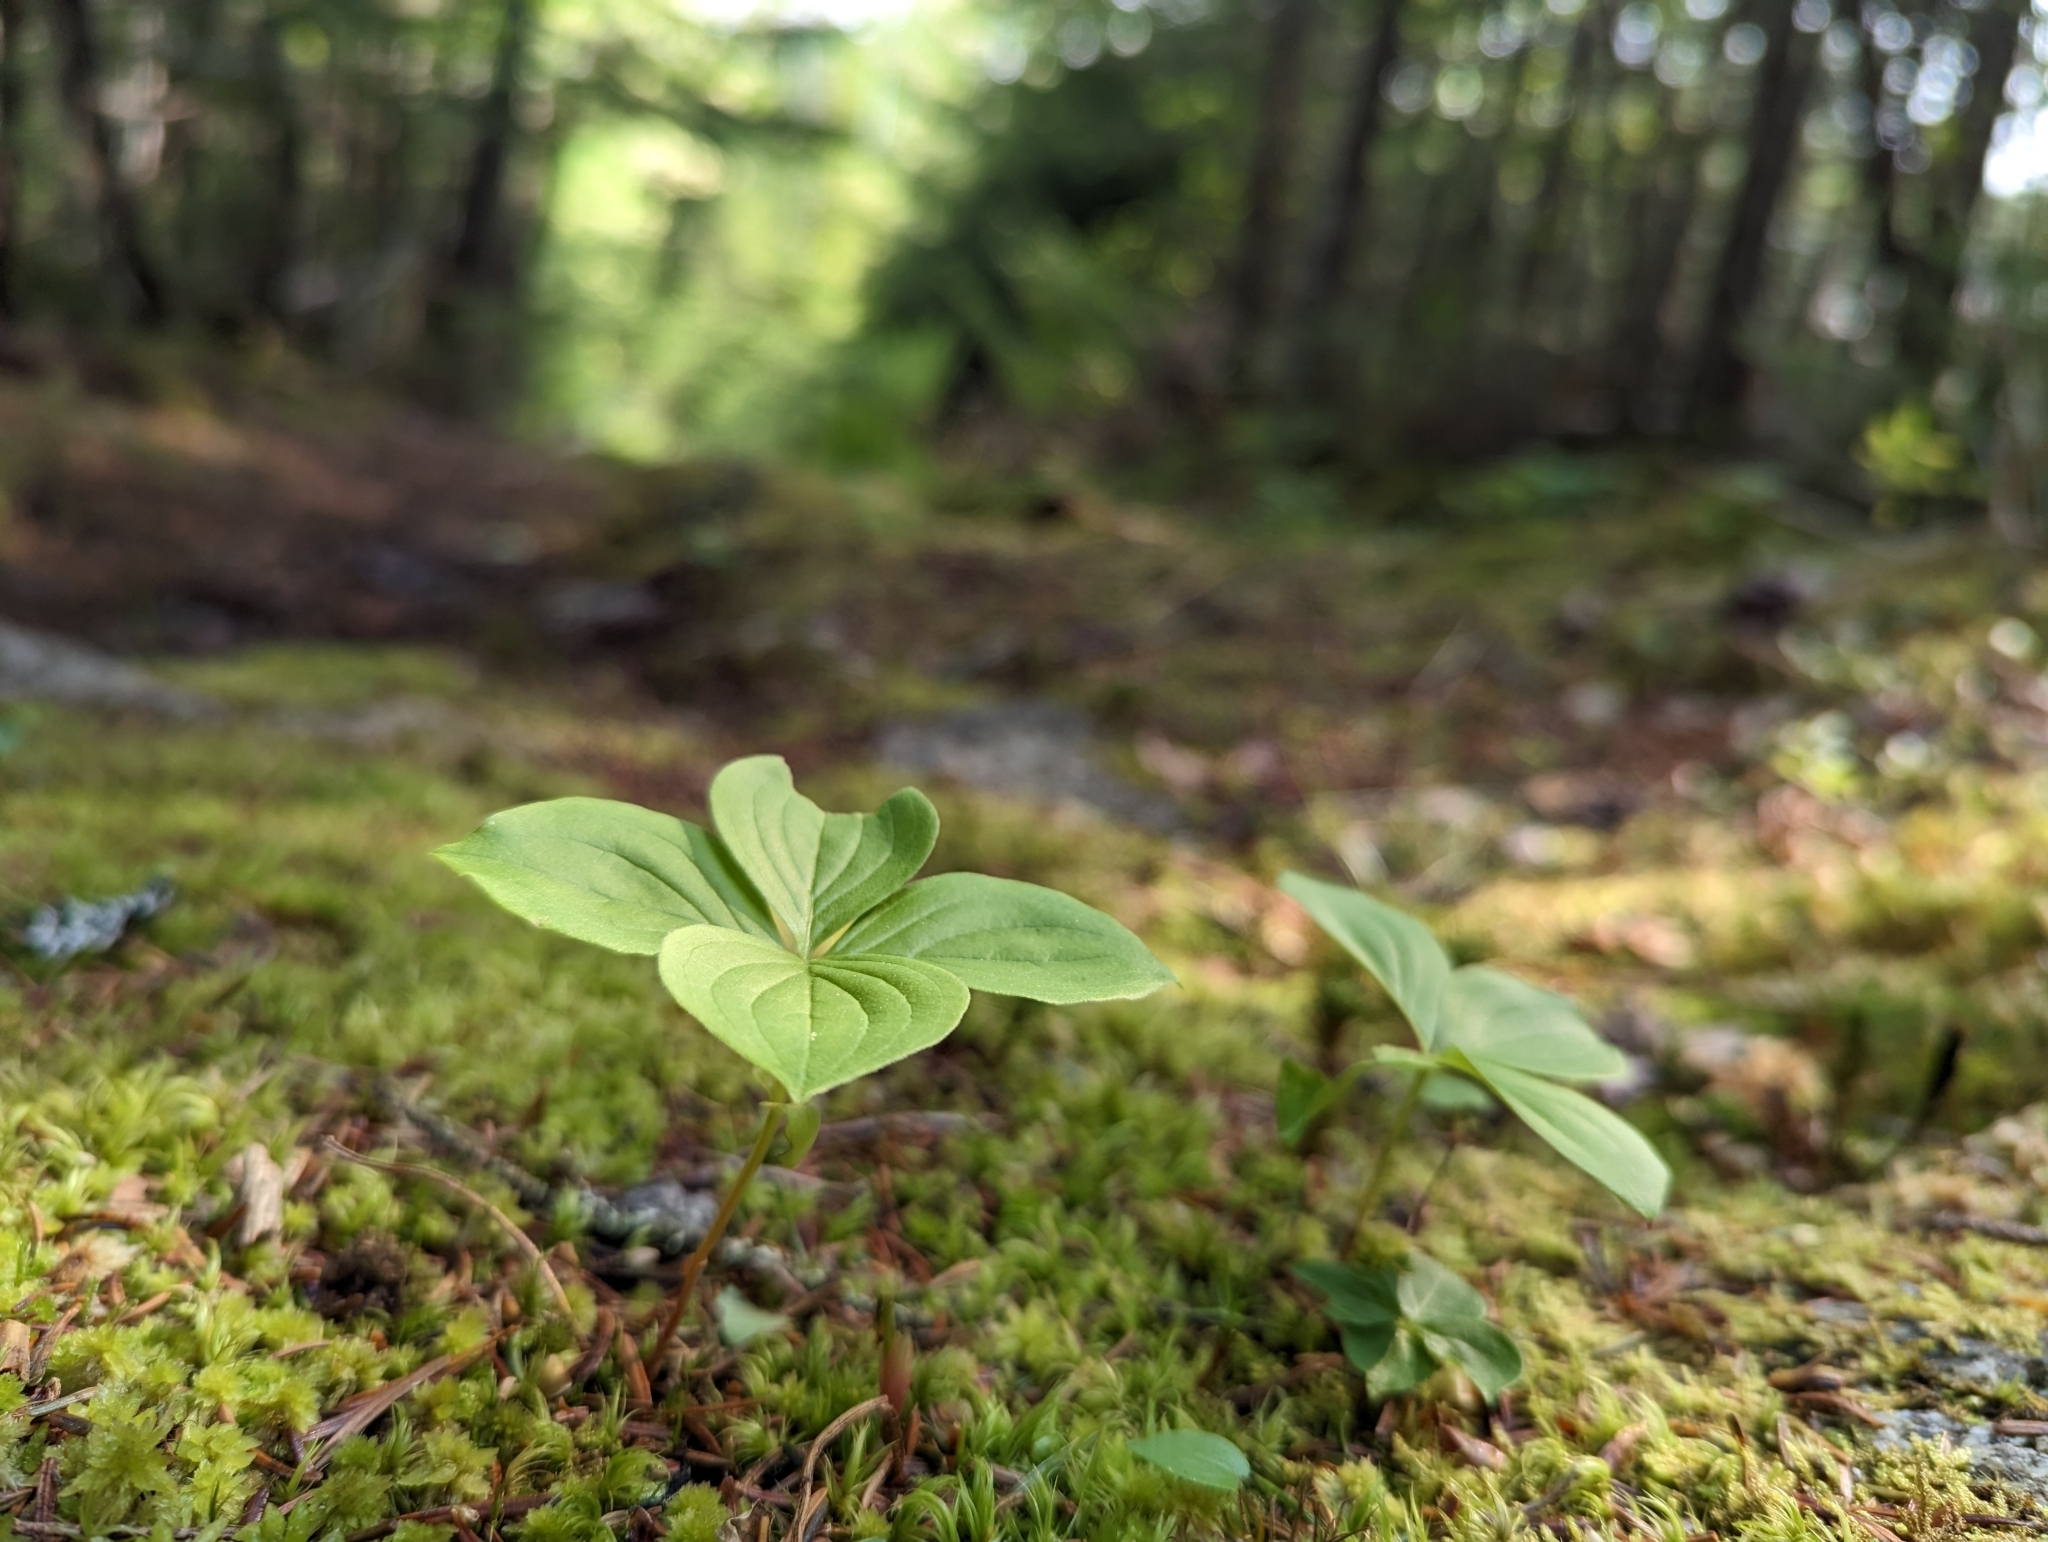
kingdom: Plantae
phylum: Tracheophyta
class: Magnoliopsida
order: Cornales
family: Cornaceae
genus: Cornus
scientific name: Cornus canadensis
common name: Creeping dogwood
